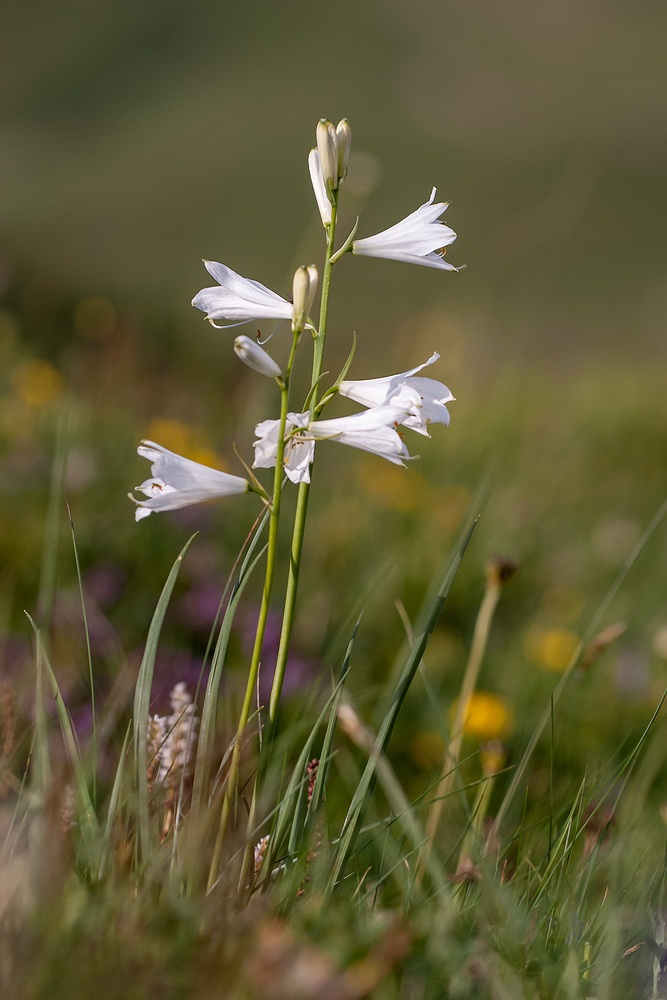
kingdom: Plantae
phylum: Tracheophyta
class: Liliopsida
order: Asparagales
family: Asparagaceae
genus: Paradisea
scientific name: Paradisea liliastrum
